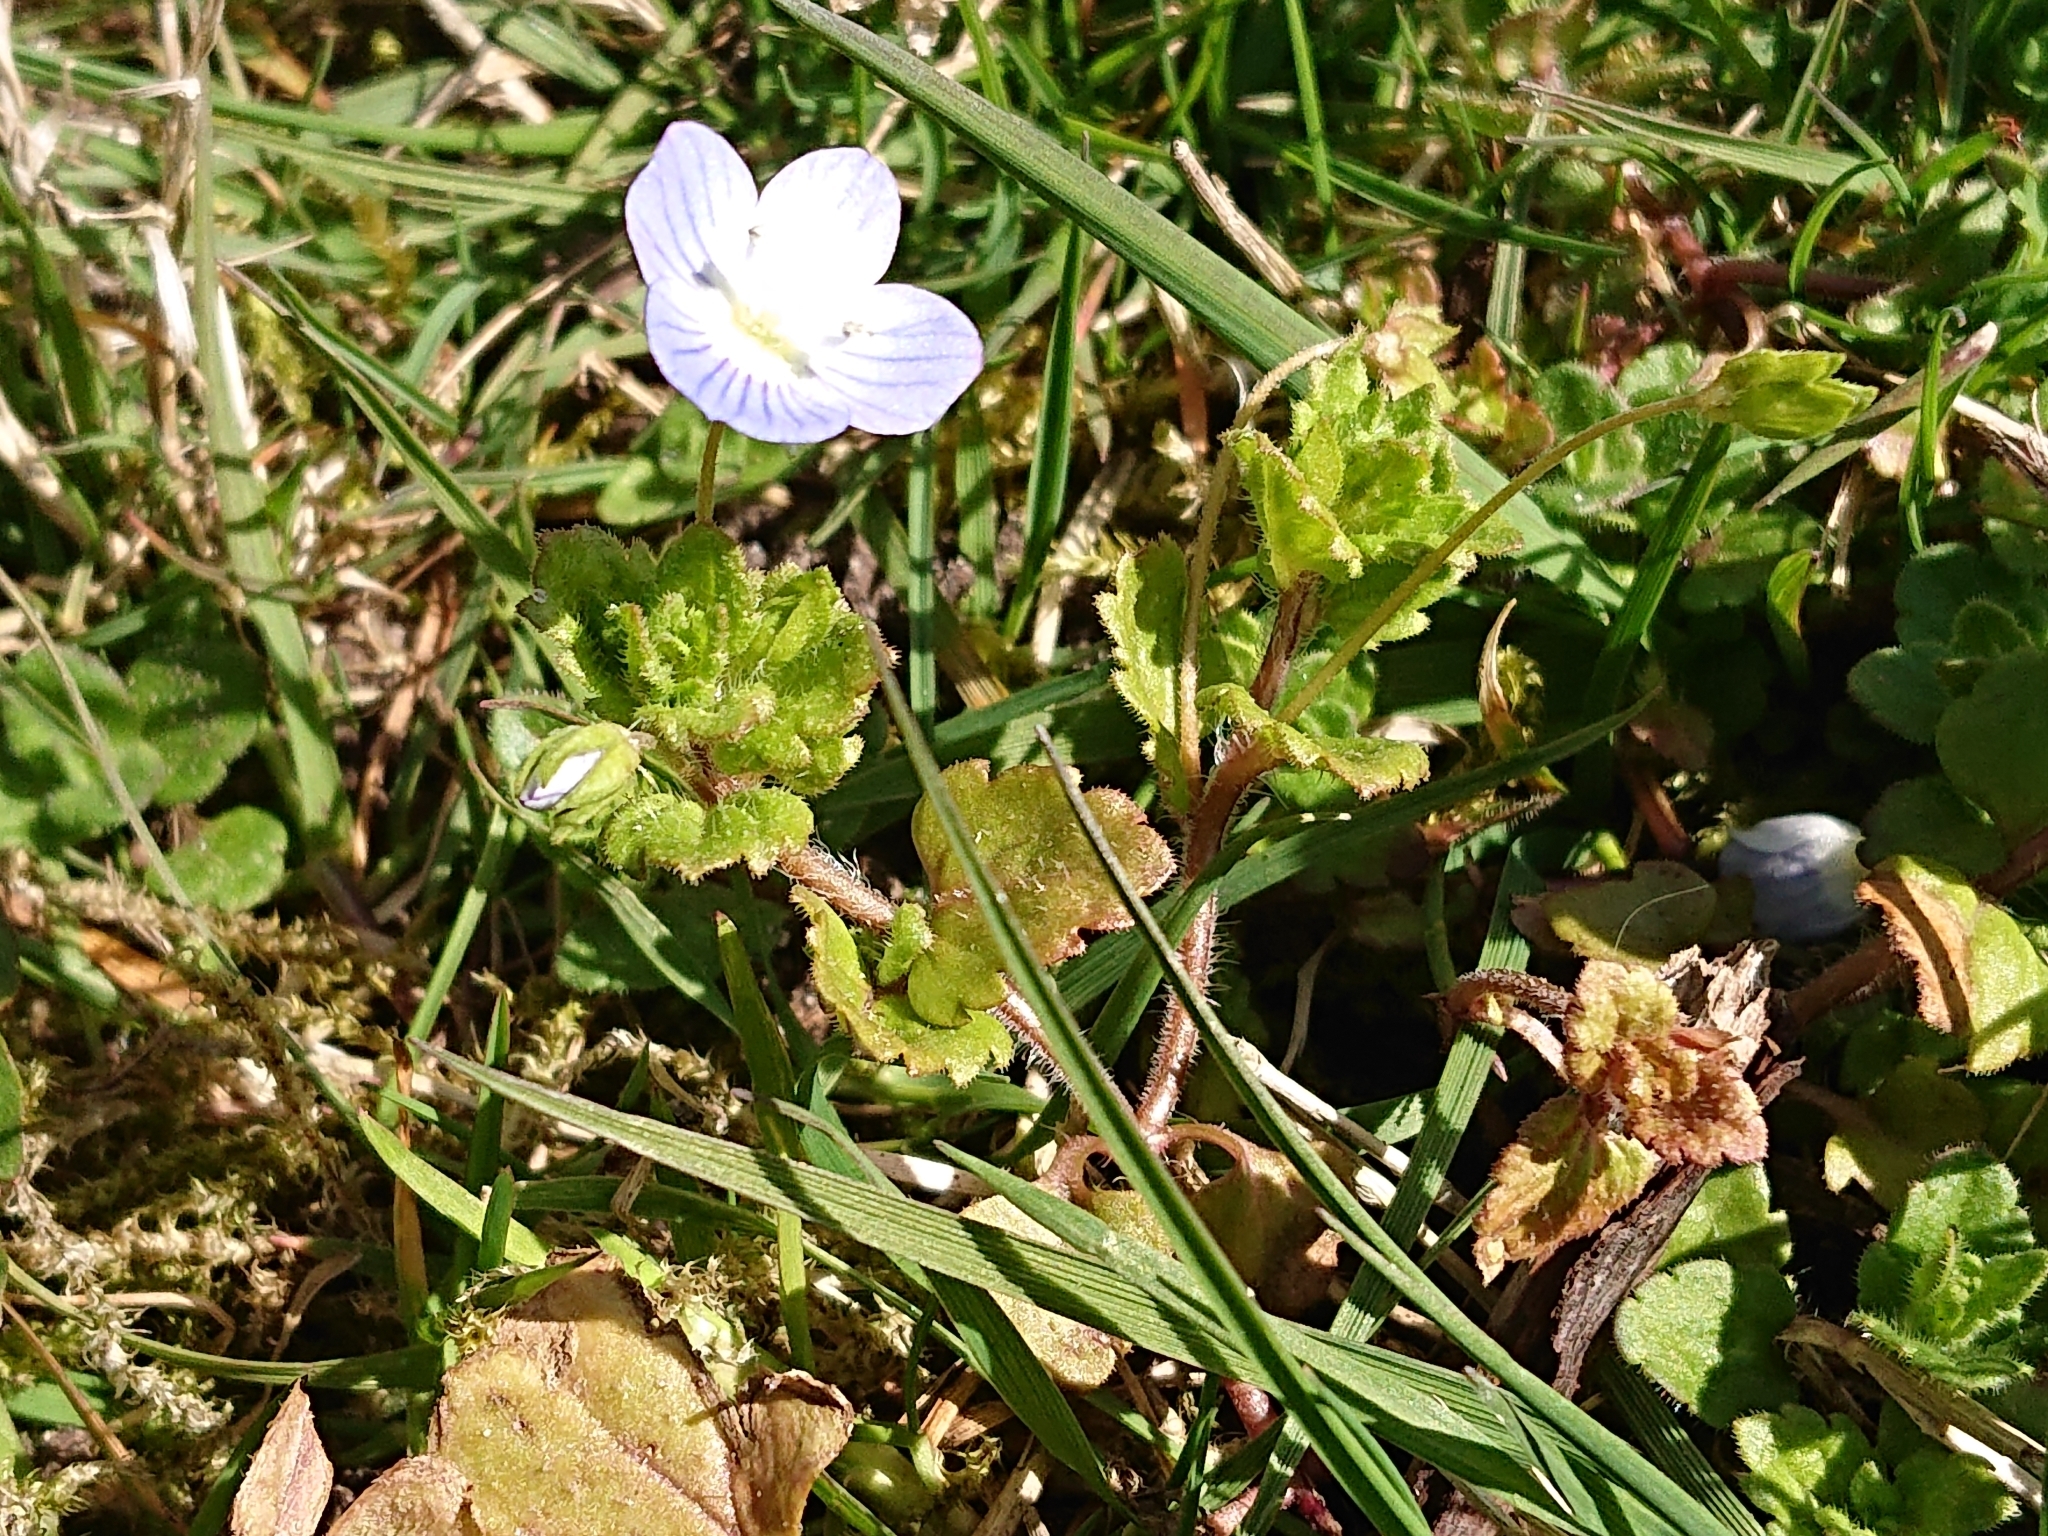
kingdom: Plantae
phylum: Tracheophyta
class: Magnoliopsida
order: Lamiales
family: Plantaginaceae
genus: Veronica
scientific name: Veronica persica
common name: Common field-speedwell
